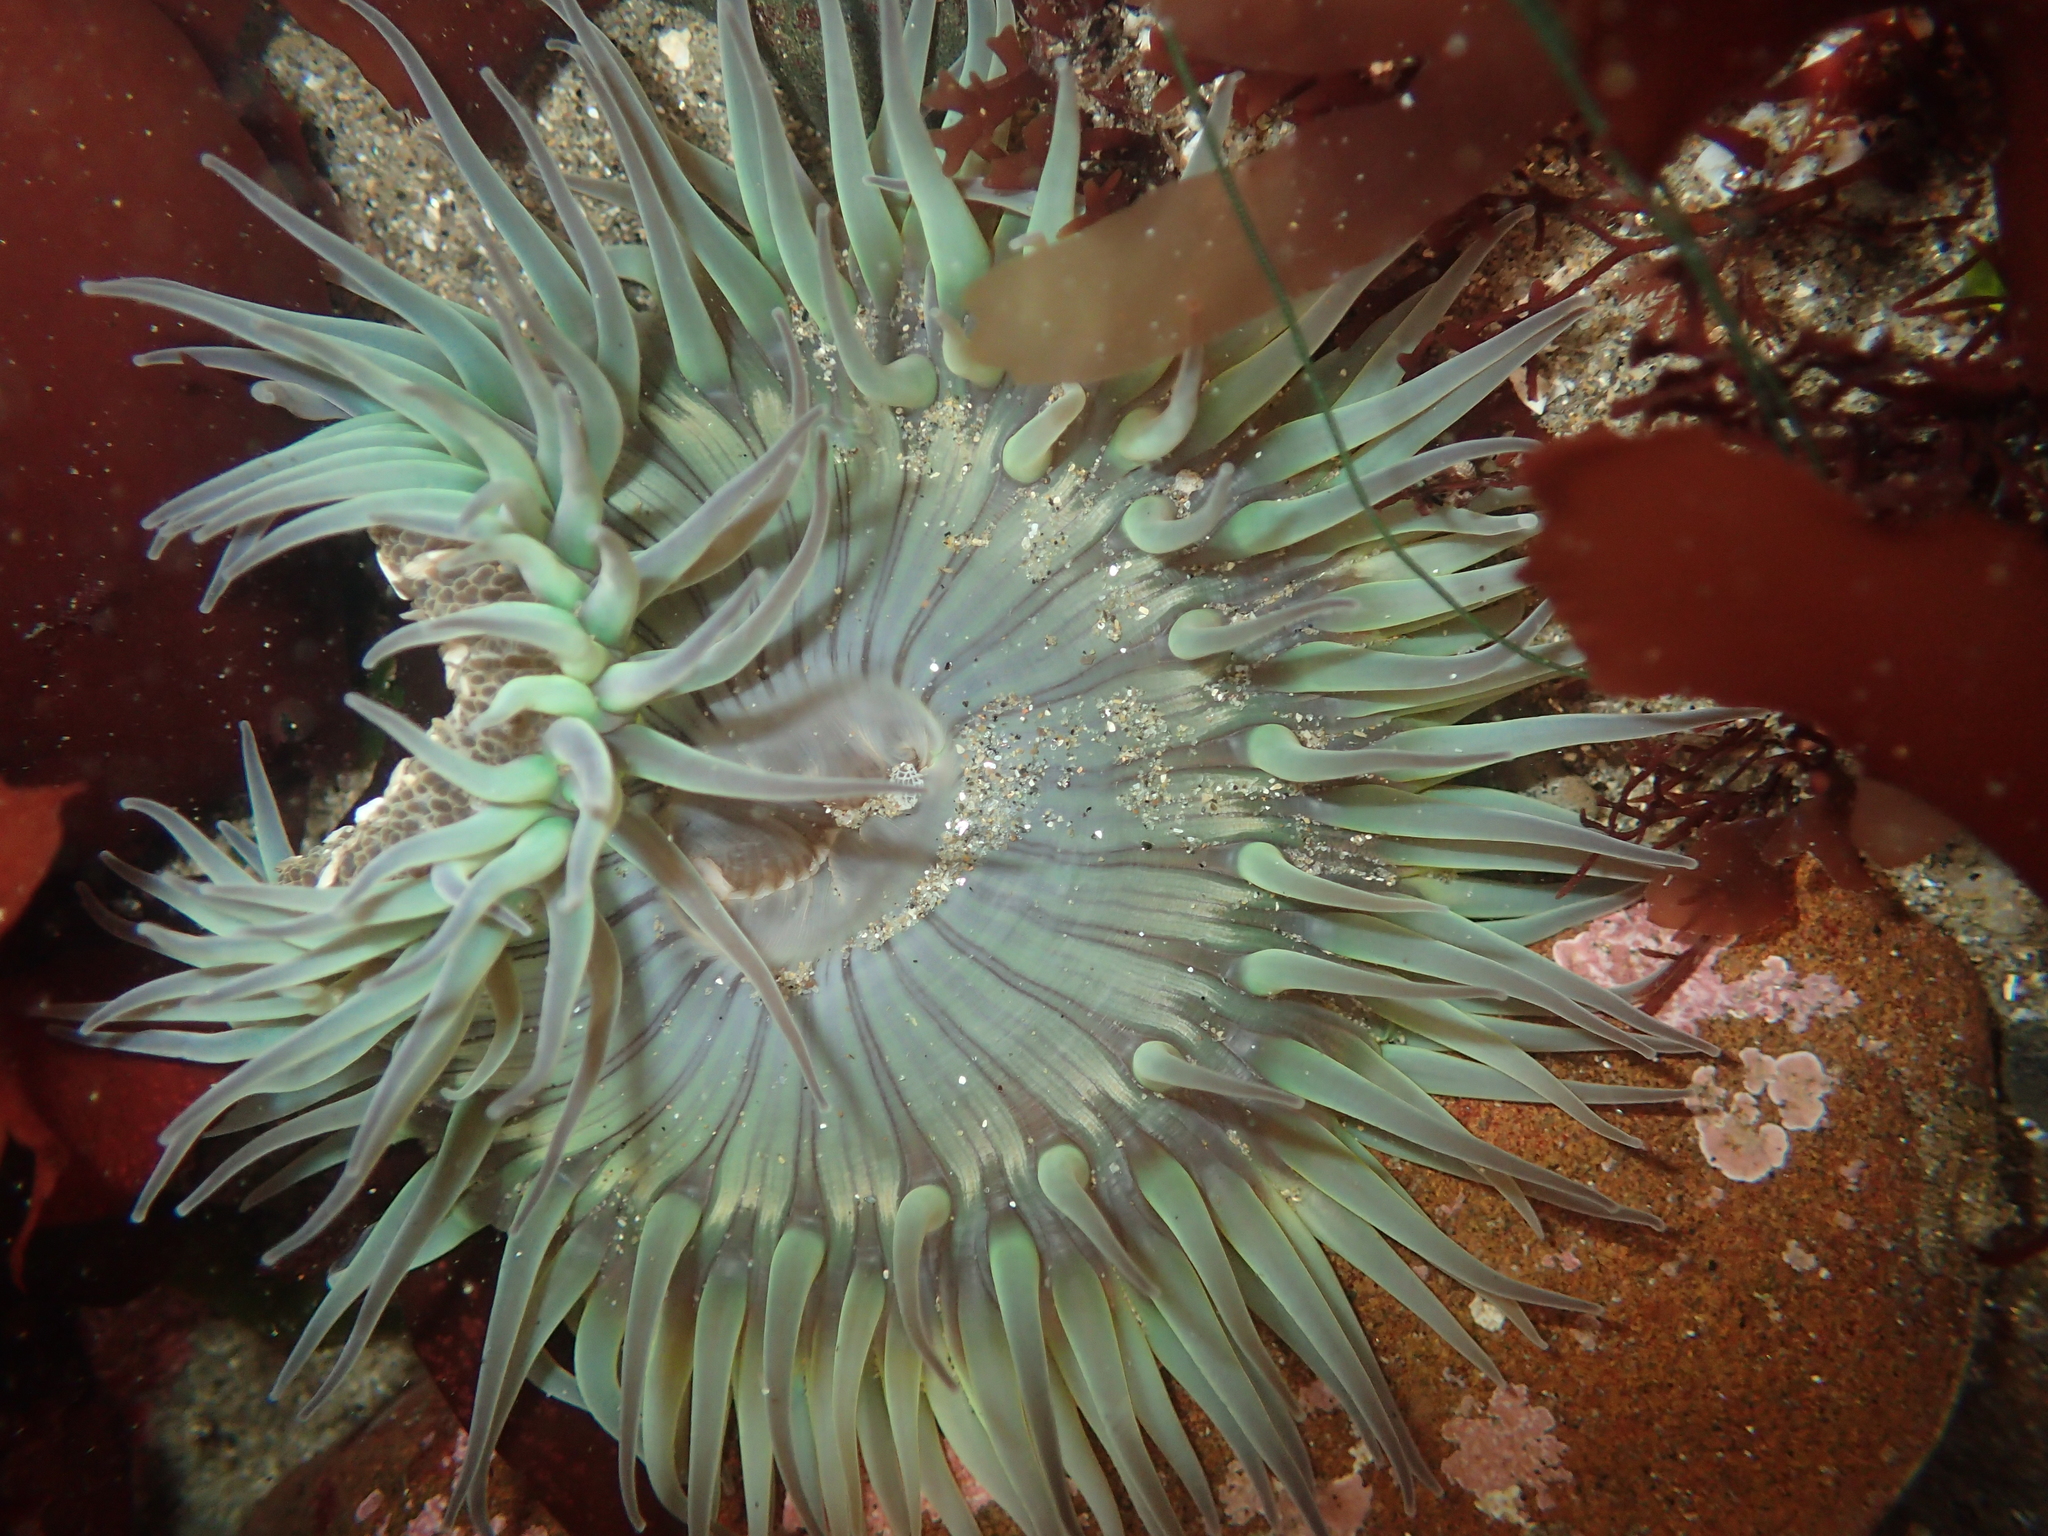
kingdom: Animalia
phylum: Cnidaria
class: Anthozoa
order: Actiniaria
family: Actiniidae
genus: Anthopleura
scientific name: Anthopleura sola
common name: Sun anemone
